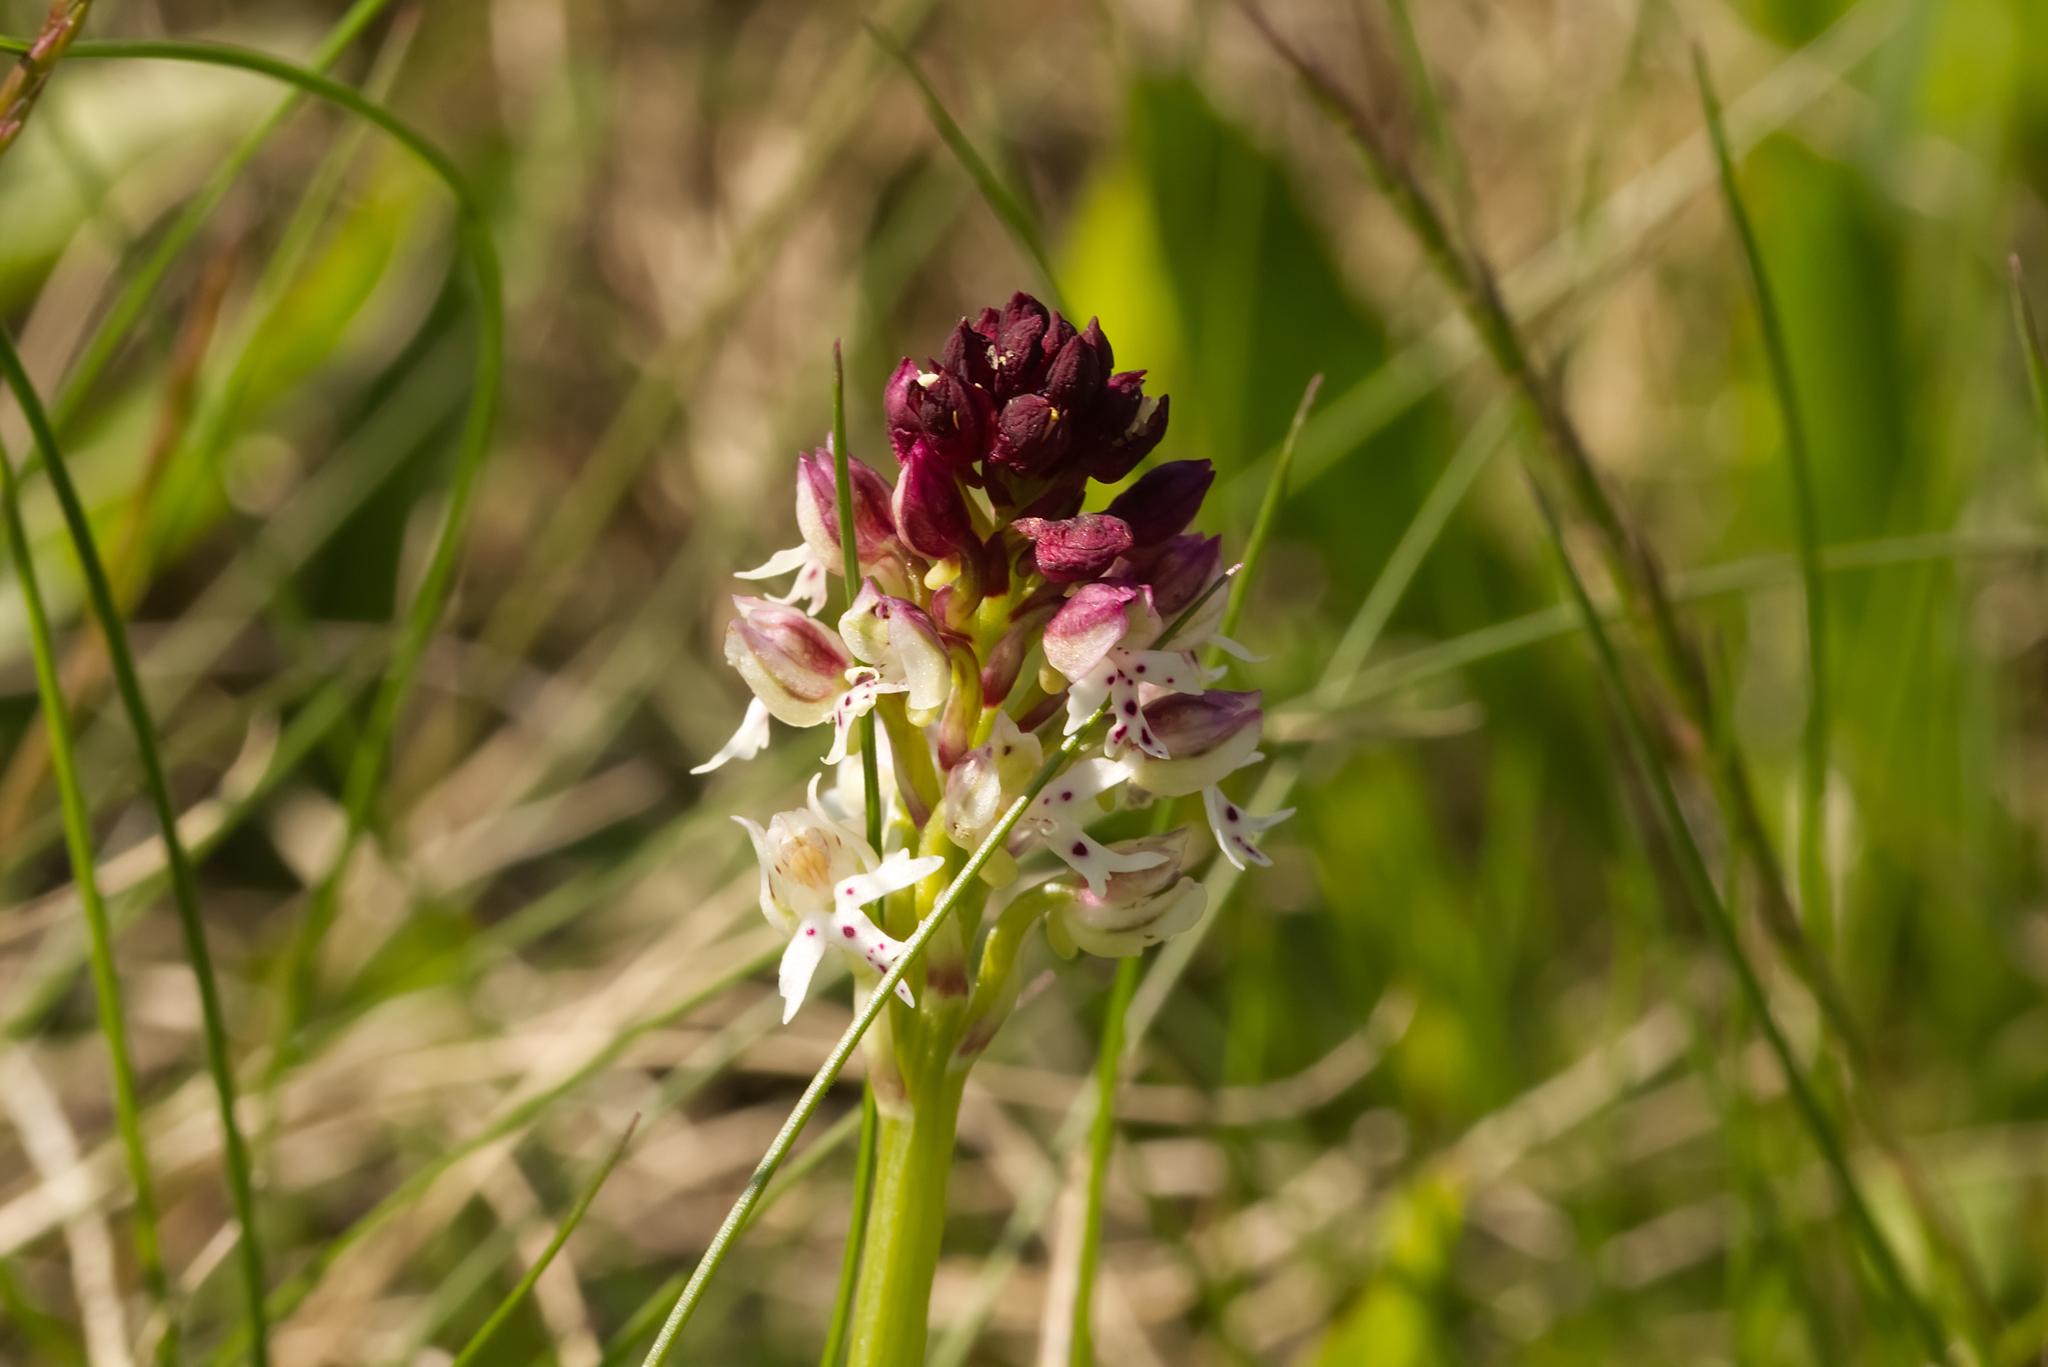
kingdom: Plantae
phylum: Tracheophyta
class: Liliopsida
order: Asparagales
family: Orchidaceae
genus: Neotinea
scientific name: Neotinea ustulata
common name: Burnt orchid
